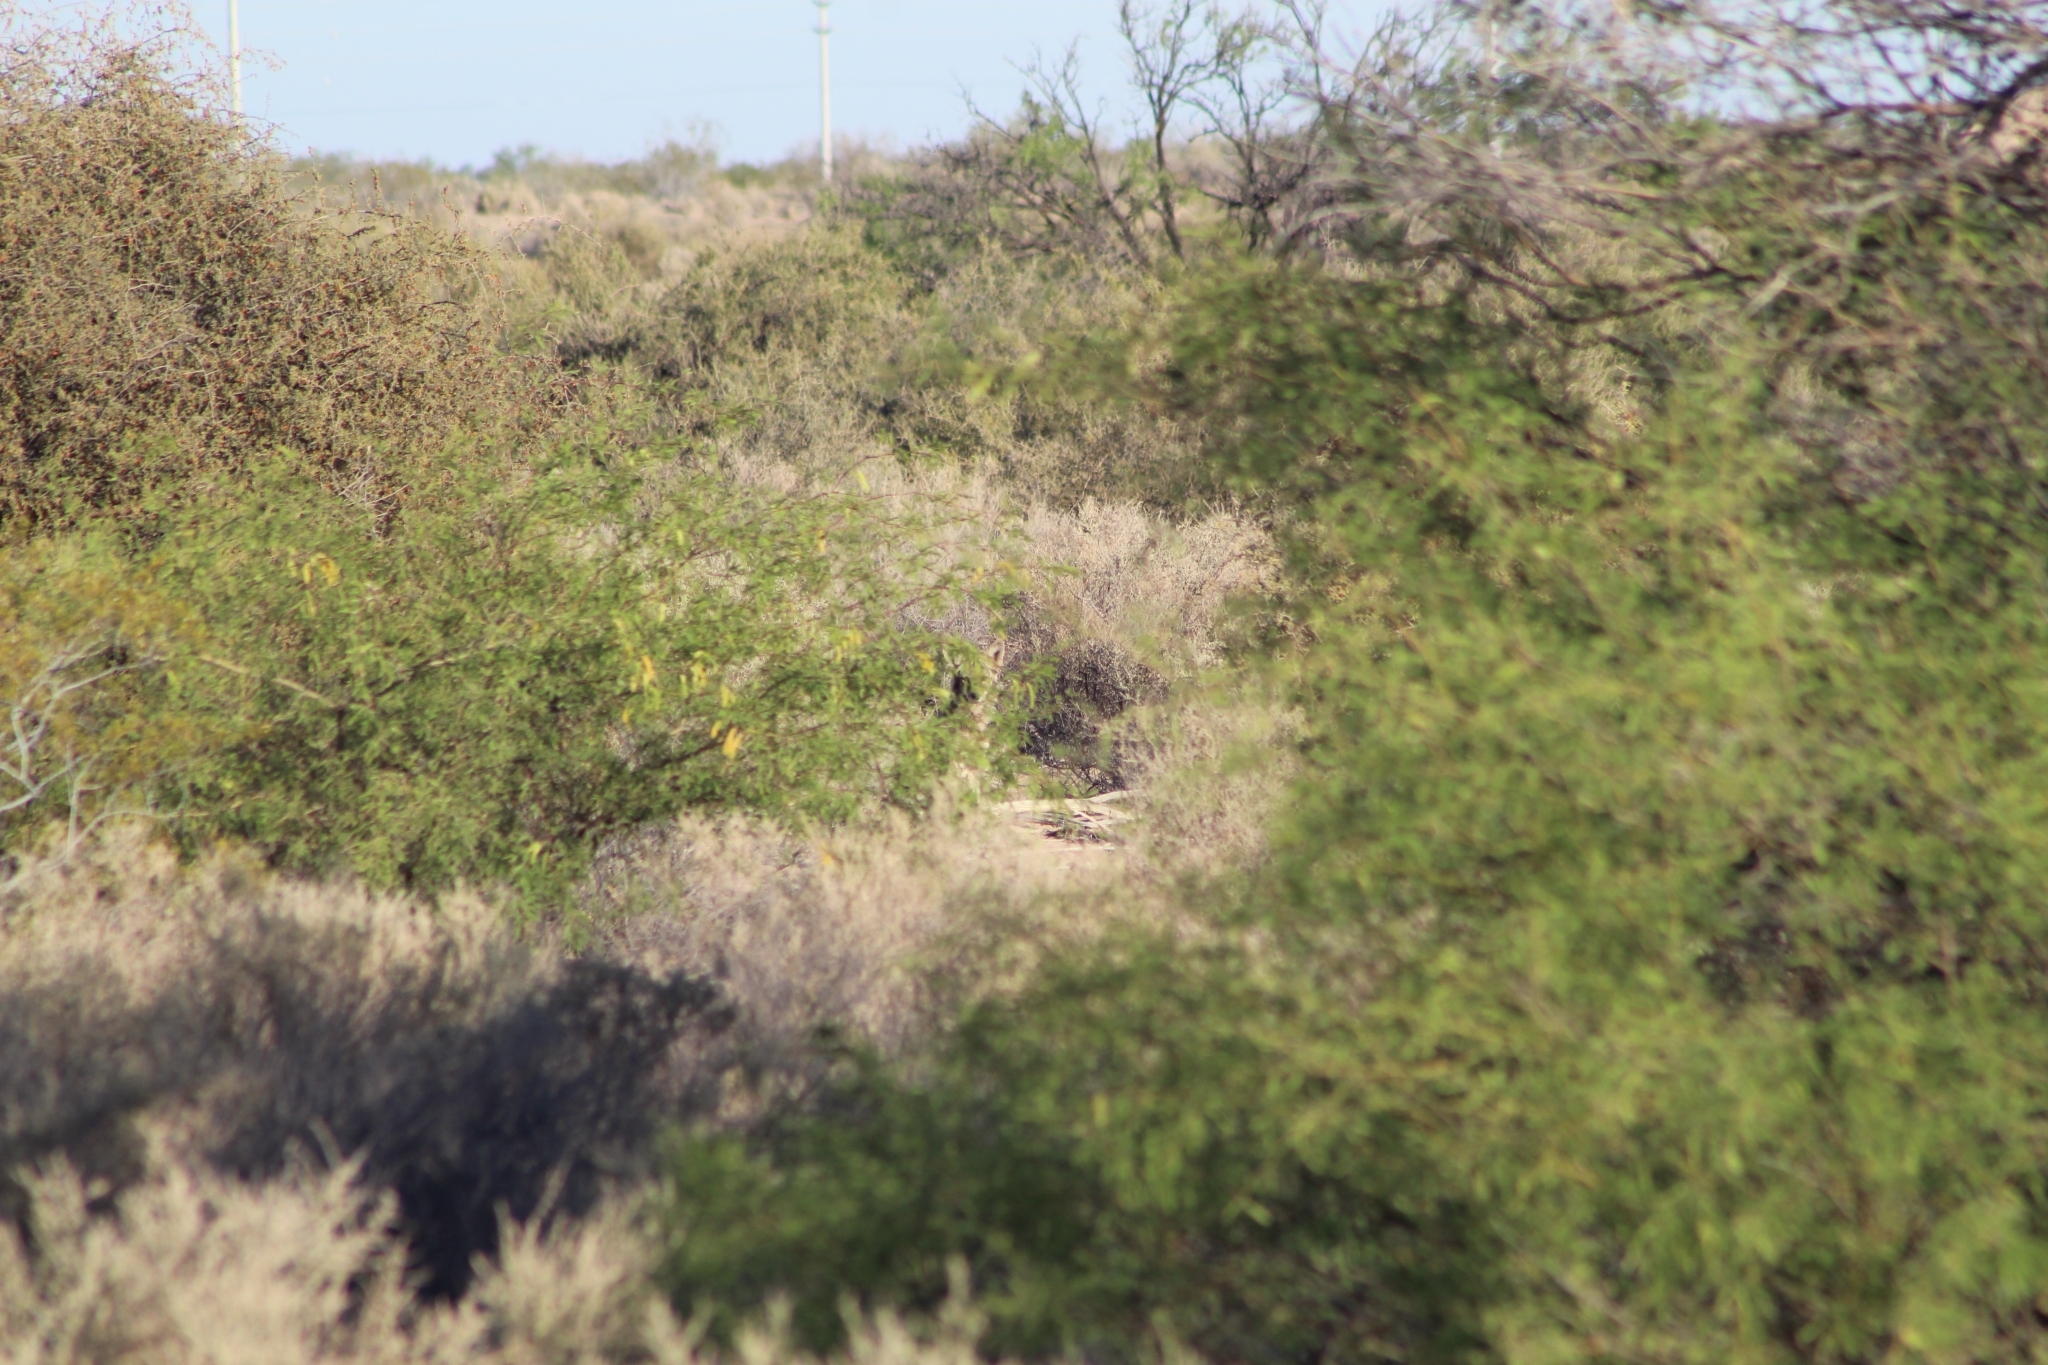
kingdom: Animalia
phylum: Chordata
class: Mammalia
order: Carnivora
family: Canidae
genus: Canis
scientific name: Canis latrans
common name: Coyote
